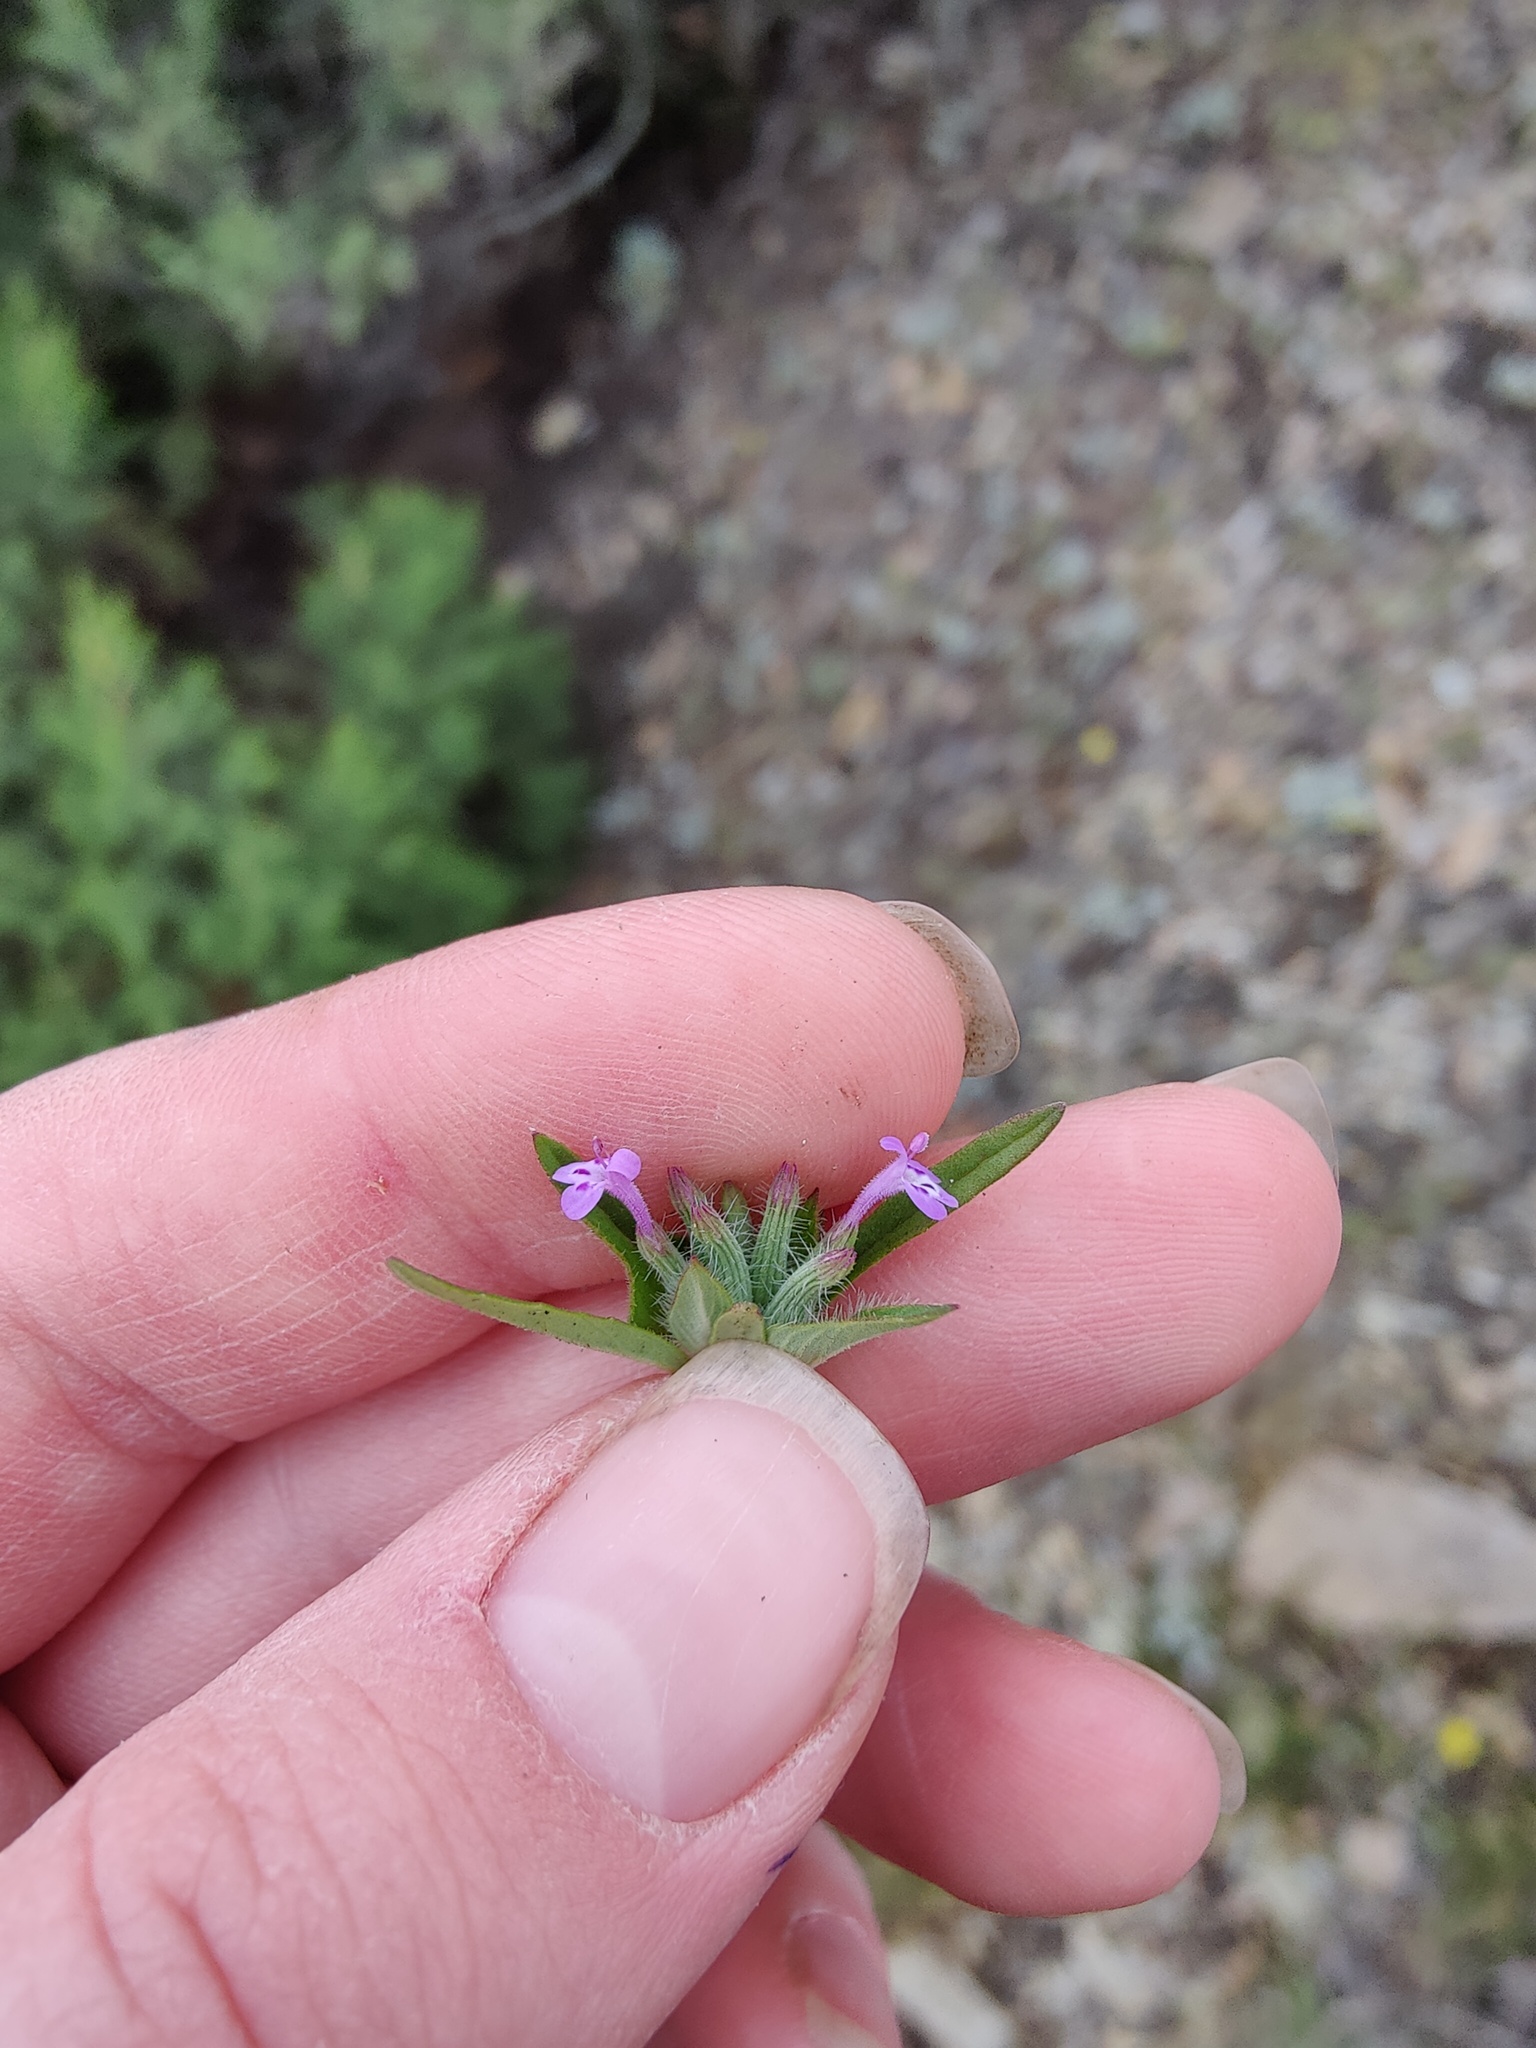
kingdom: Plantae
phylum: Tracheophyta
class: Magnoliopsida
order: Lamiales
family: Lamiaceae
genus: Ziziphora
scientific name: Ziziphora capitata
